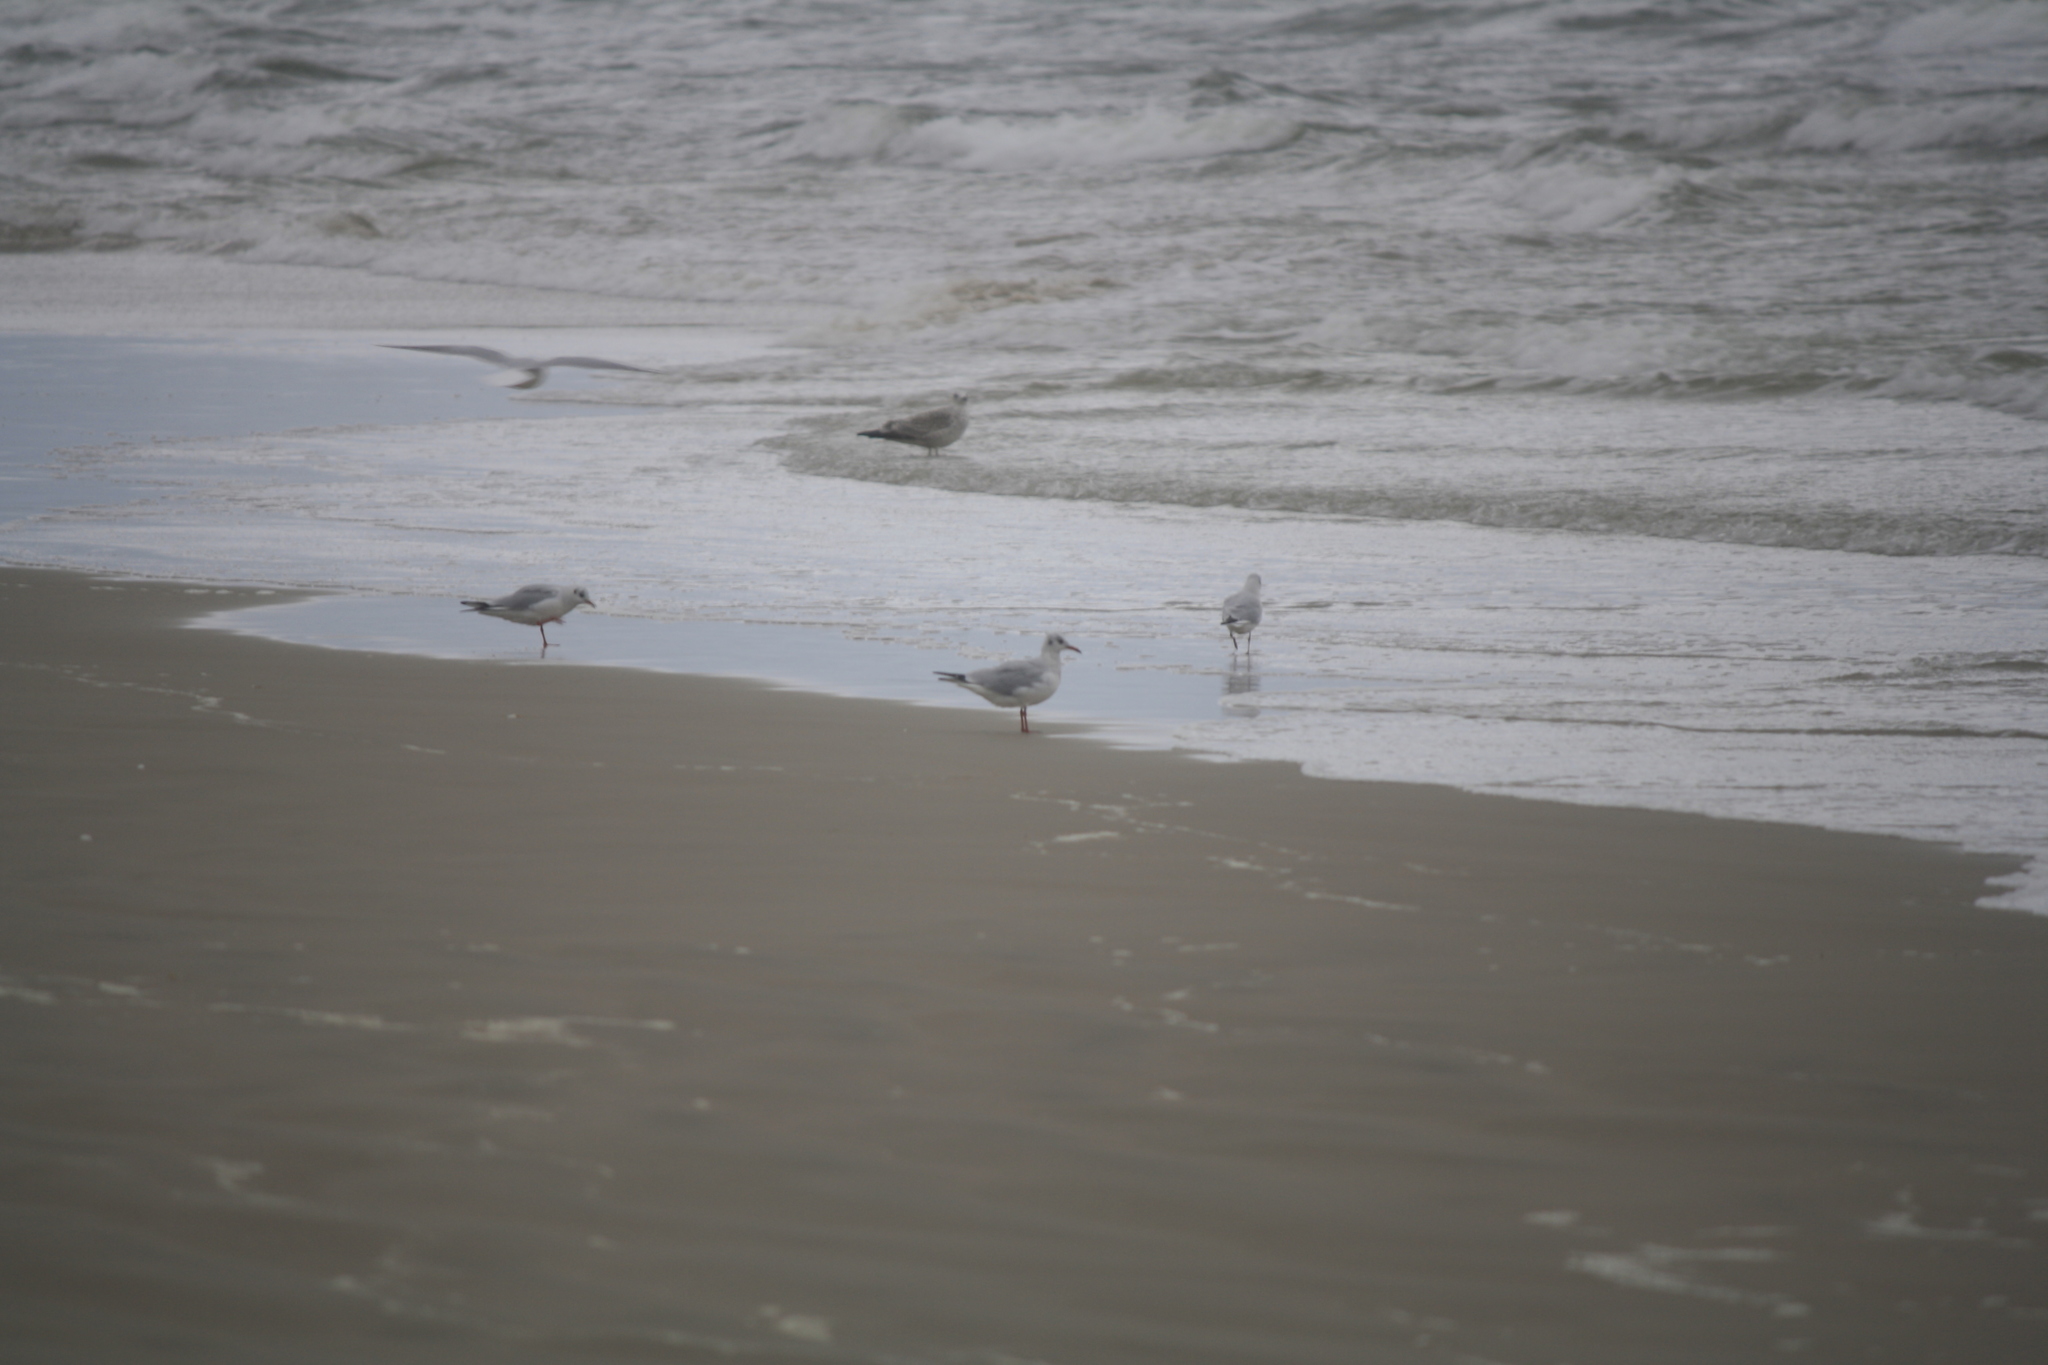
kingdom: Animalia
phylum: Chordata
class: Aves
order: Charadriiformes
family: Laridae
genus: Chroicocephalus
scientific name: Chroicocephalus ridibundus
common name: Black-headed gull
